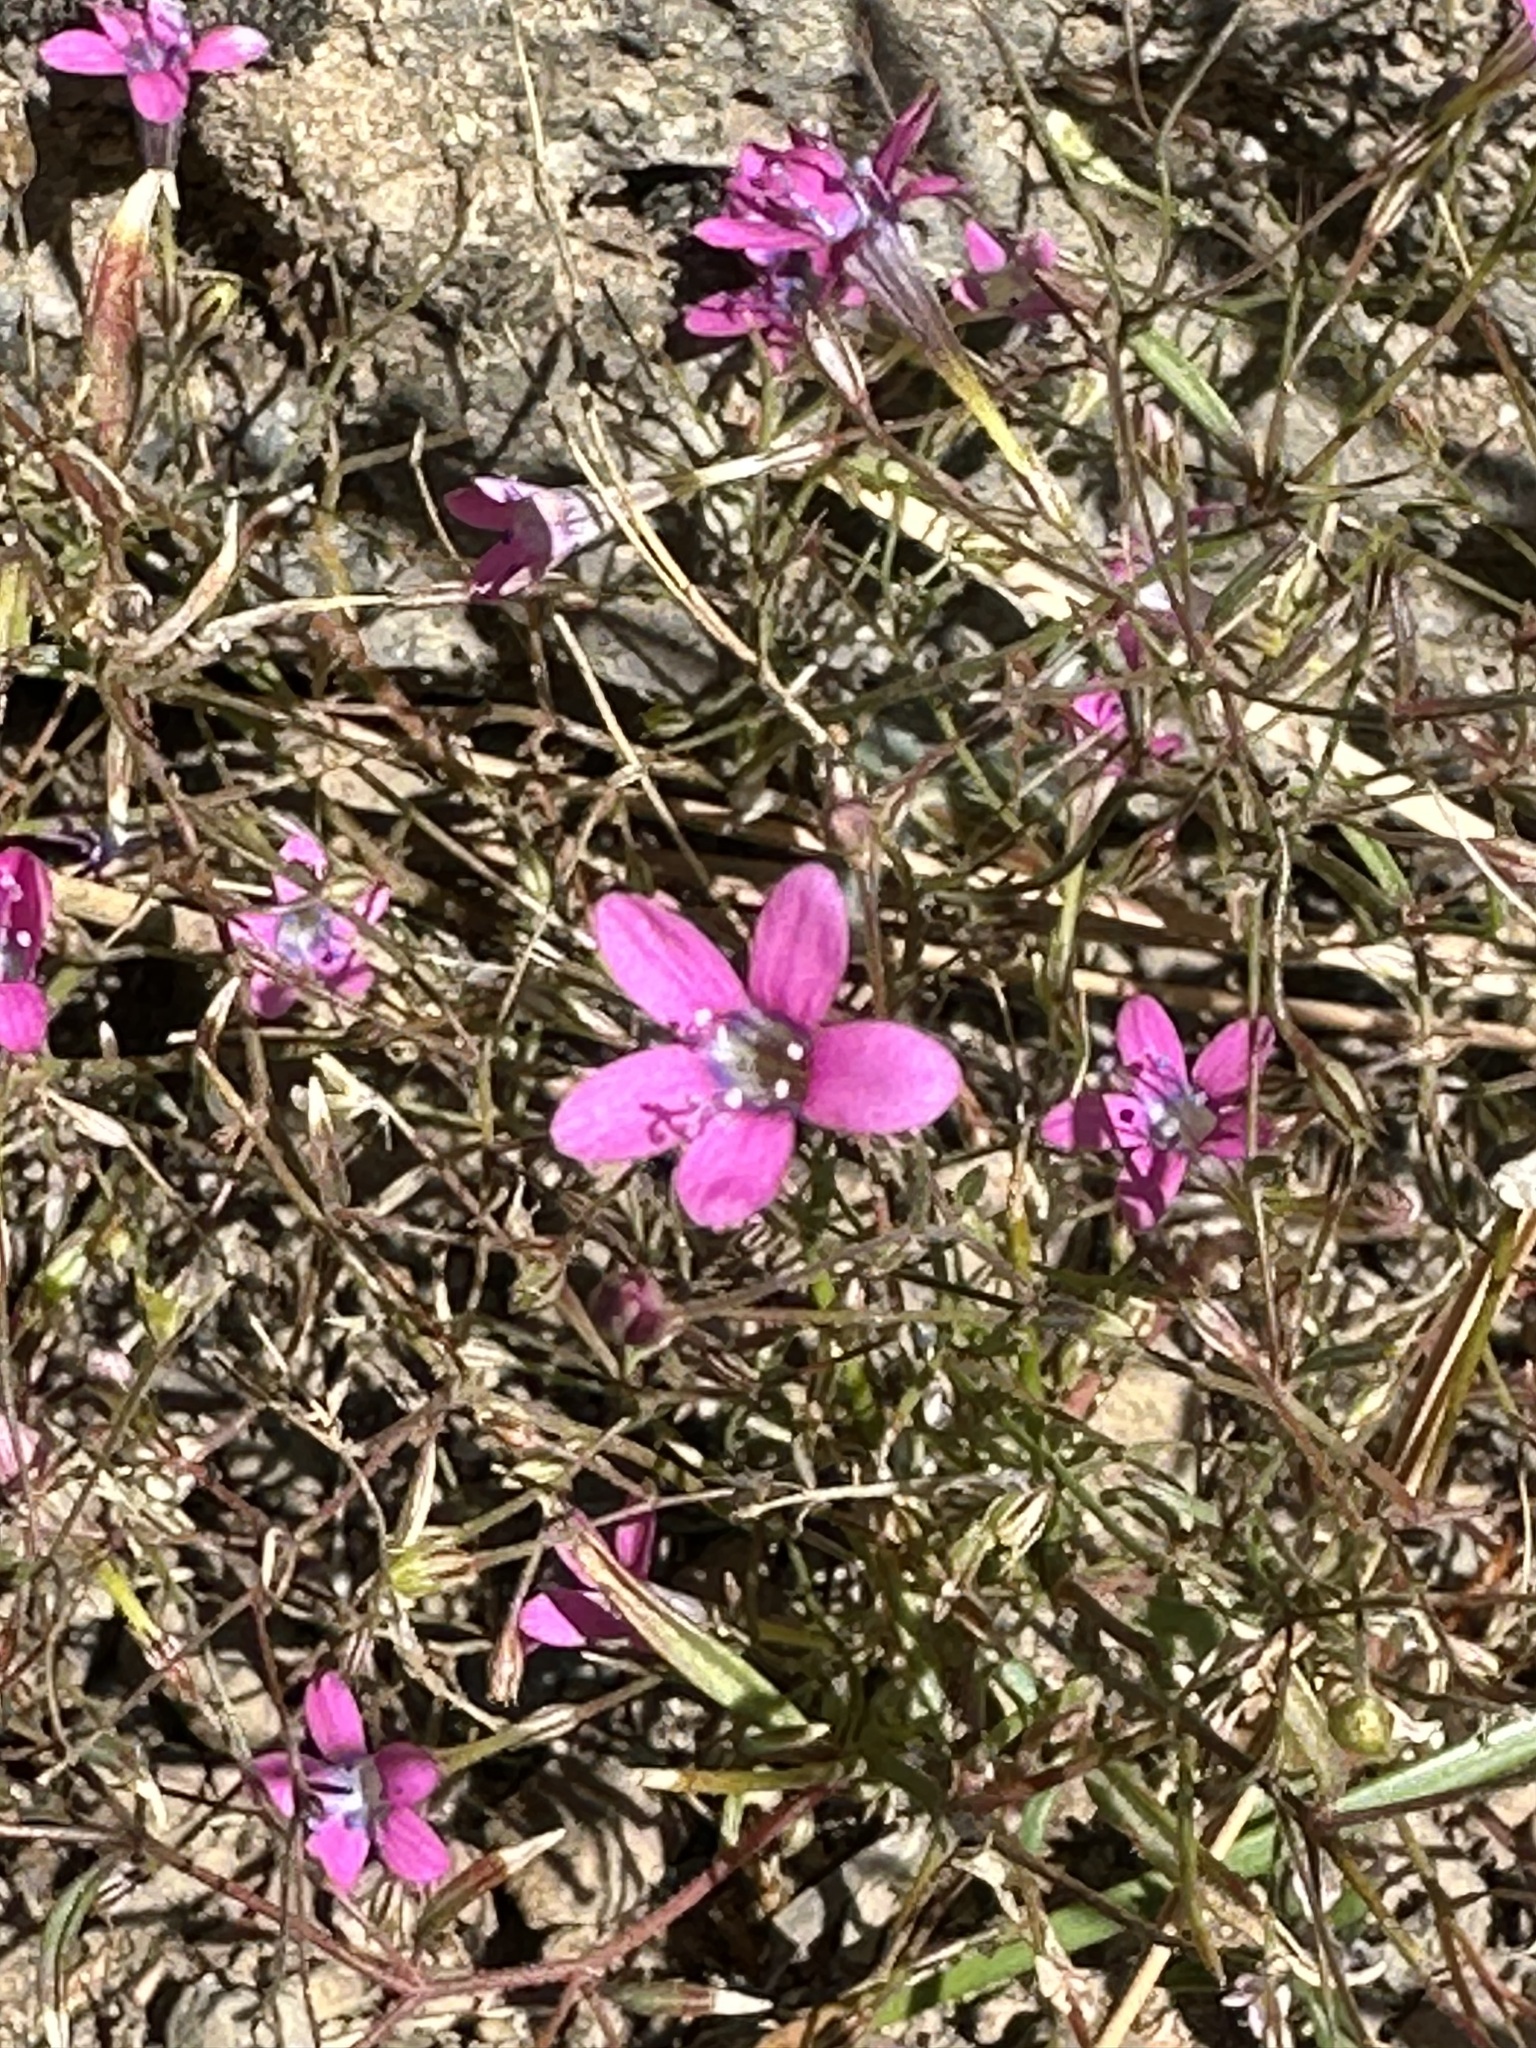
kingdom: Plantae
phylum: Tracheophyta
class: Magnoliopsida
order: Ericales
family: Polemoniaceae
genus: Navarretia
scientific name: Navarretia leptalea
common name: Bridges' pincushionplant
